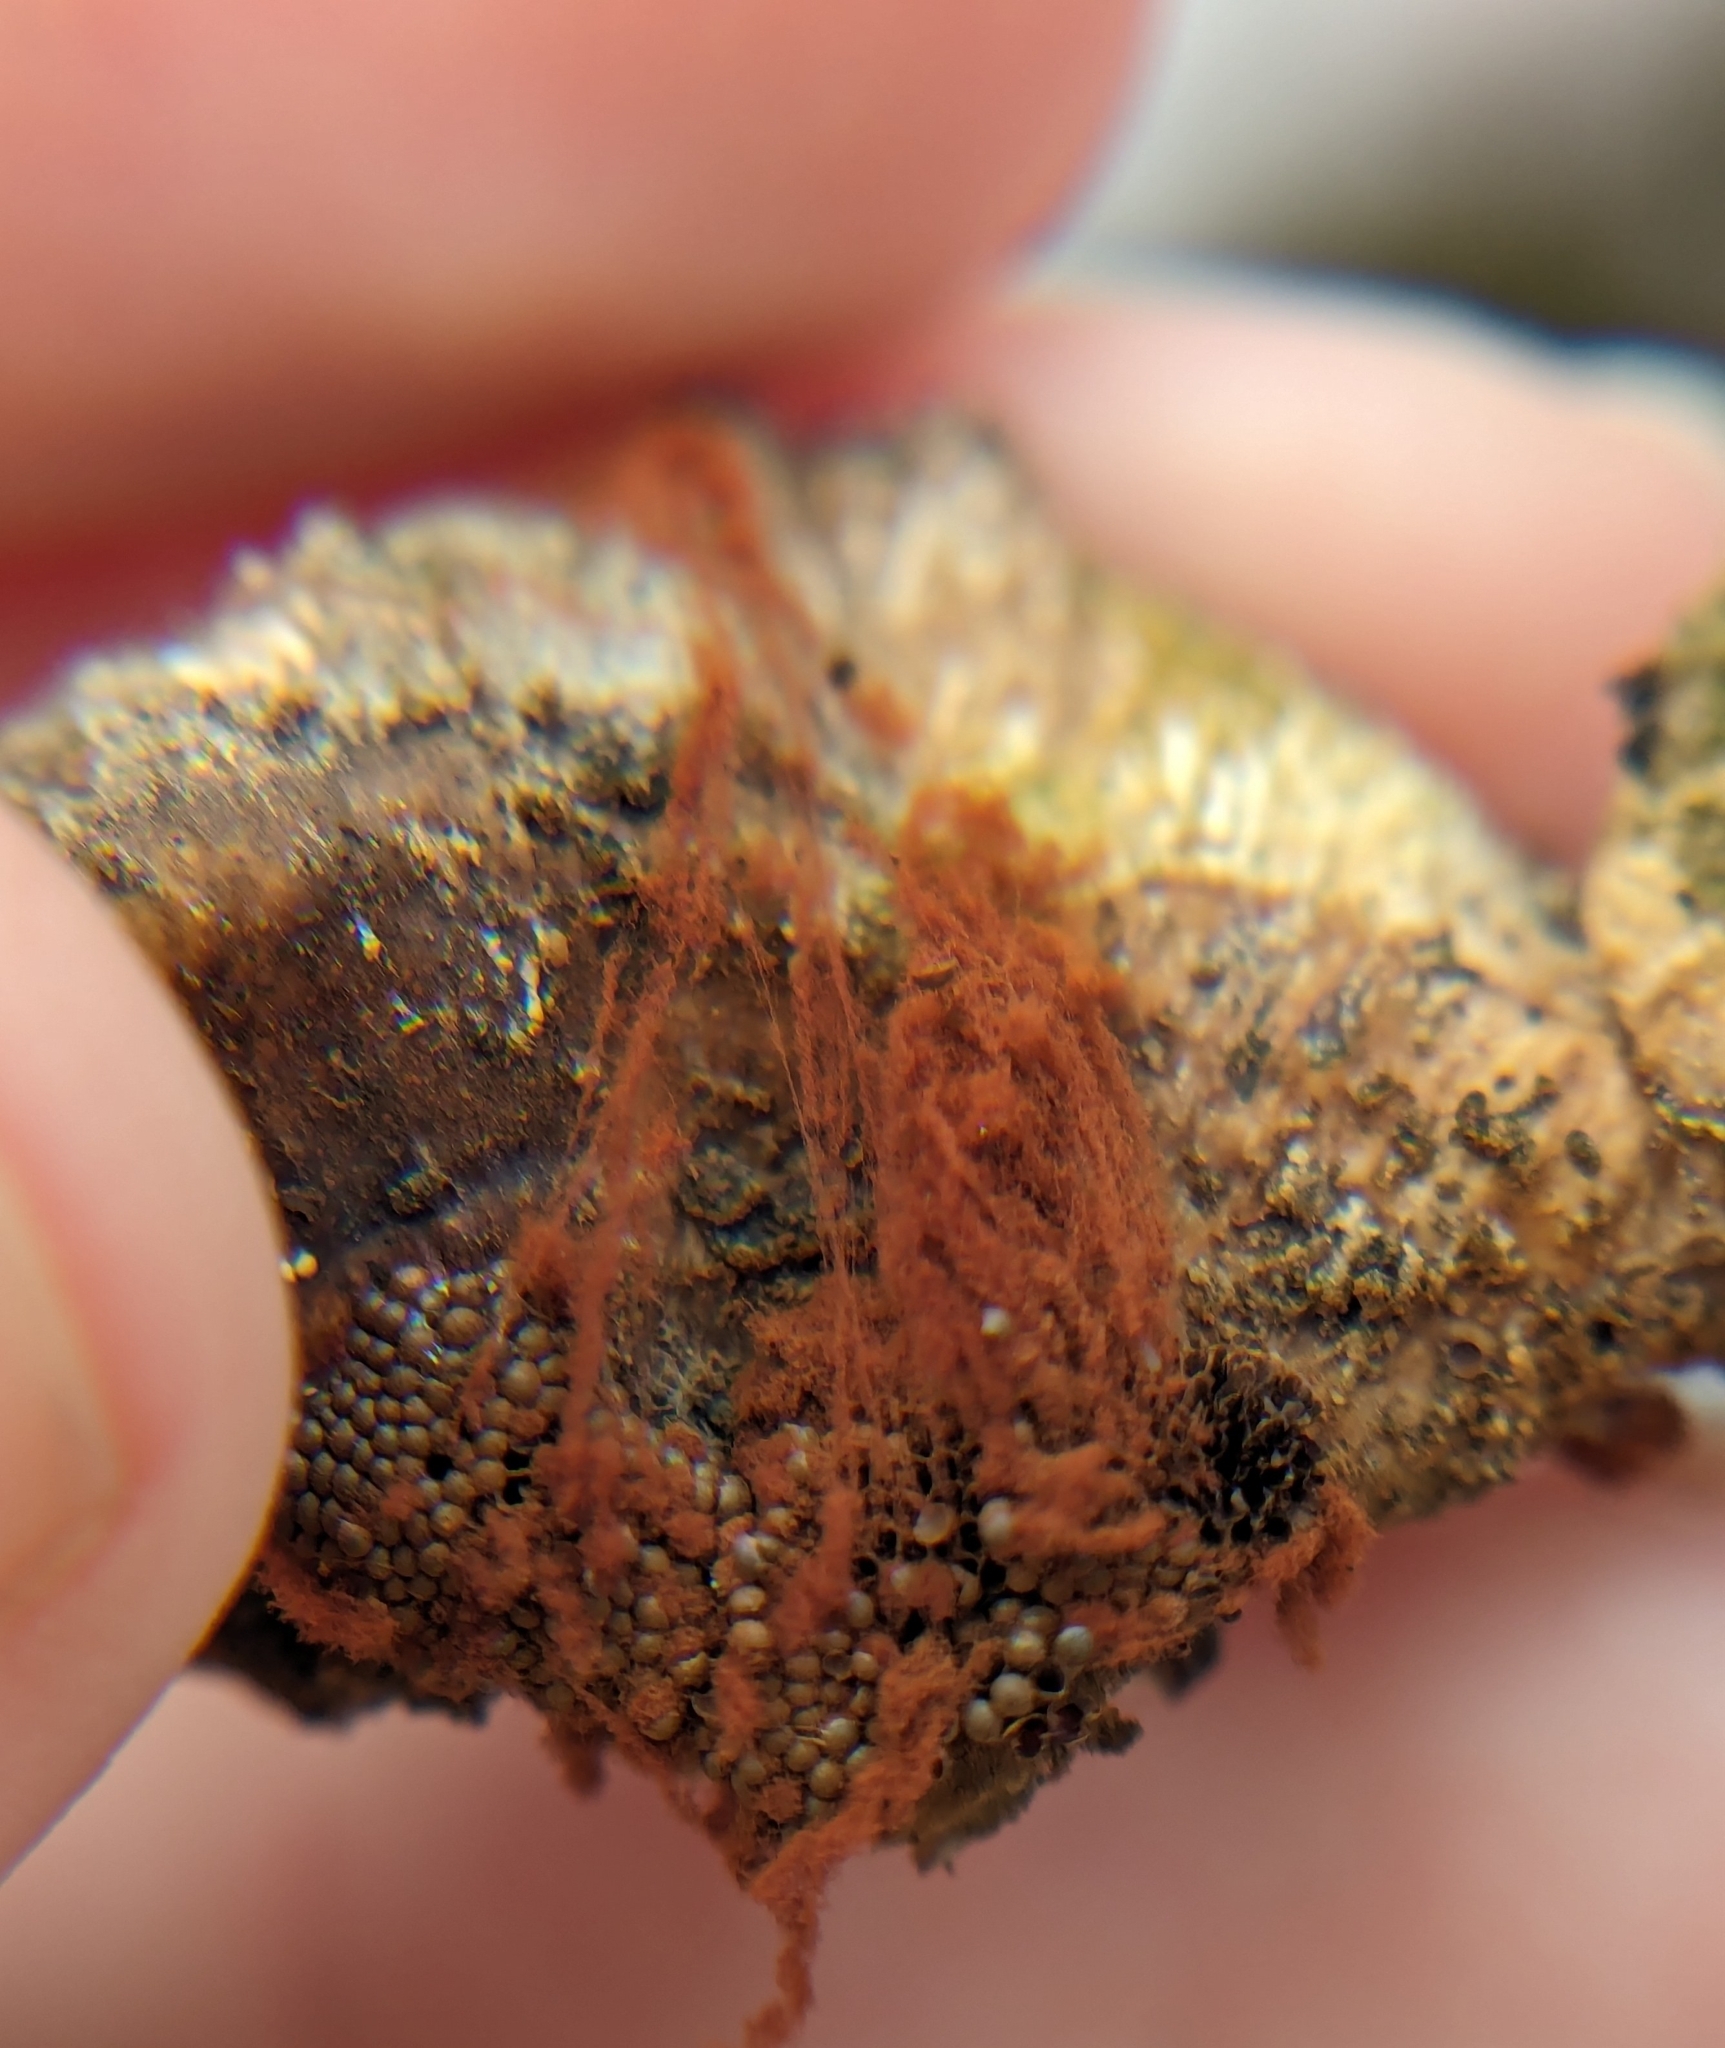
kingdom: Protozoa
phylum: Mycetozoa
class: Myxomycetes
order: Trichiales
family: Trichiaceae
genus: Metatrichia
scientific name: Metatrichia vesparia
